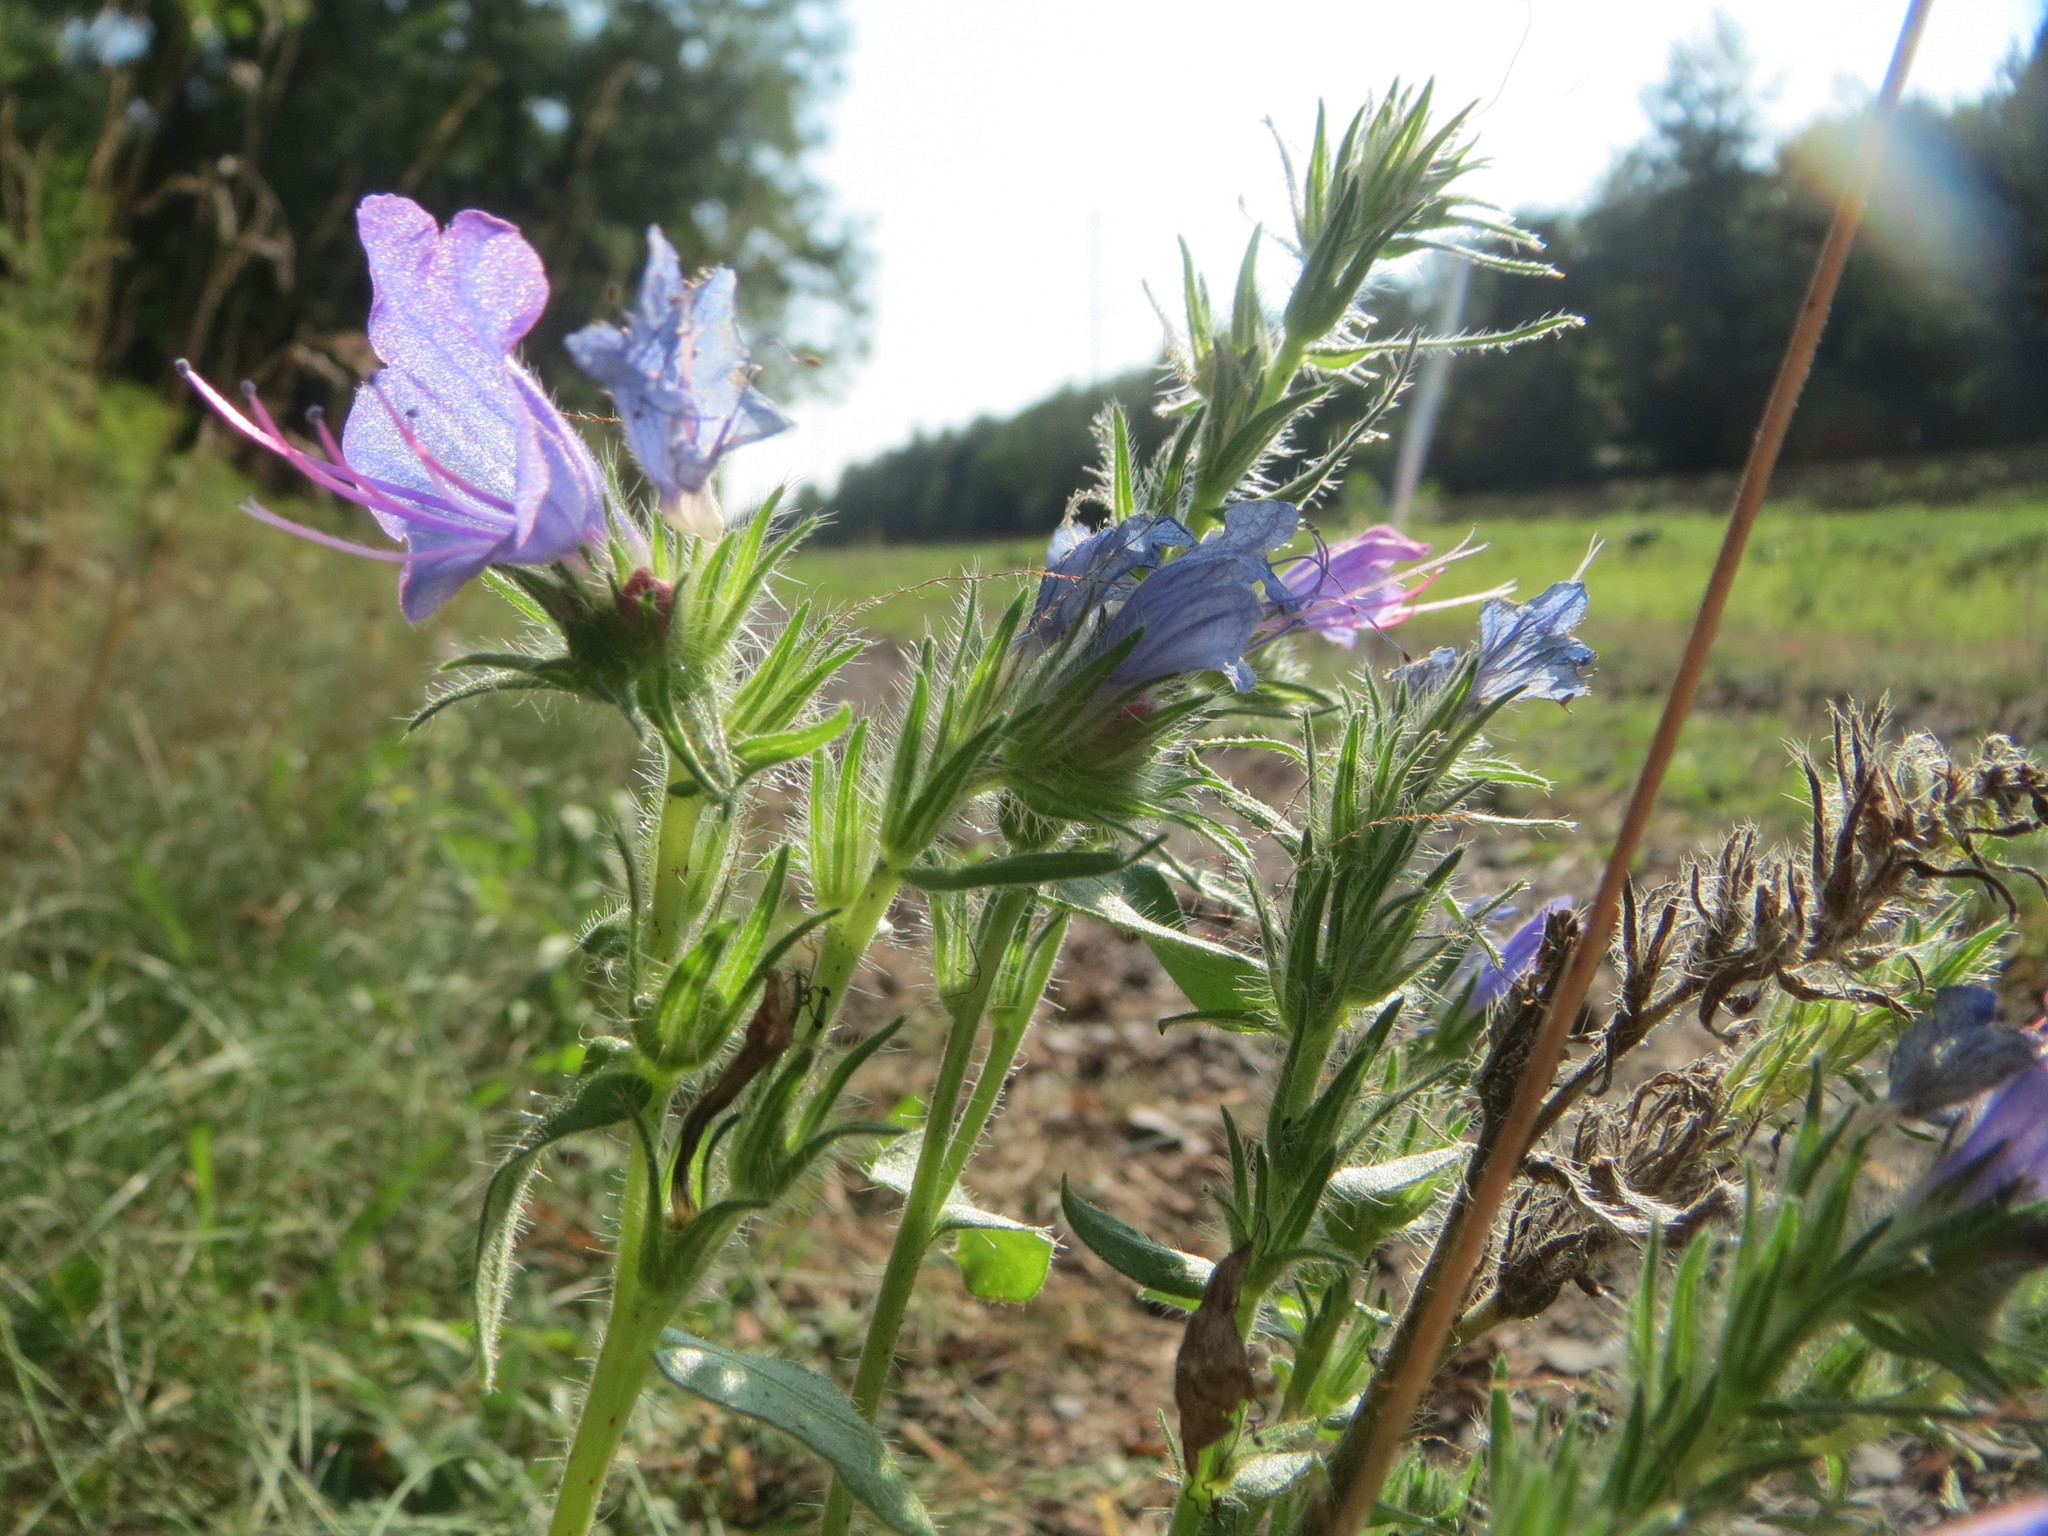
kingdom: Plantae
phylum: Tracheophyta
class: Magnoliopsida
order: Boraginales
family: Boraginaceae
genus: Echium
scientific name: Echium vulgare
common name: Common viper's bugloss
